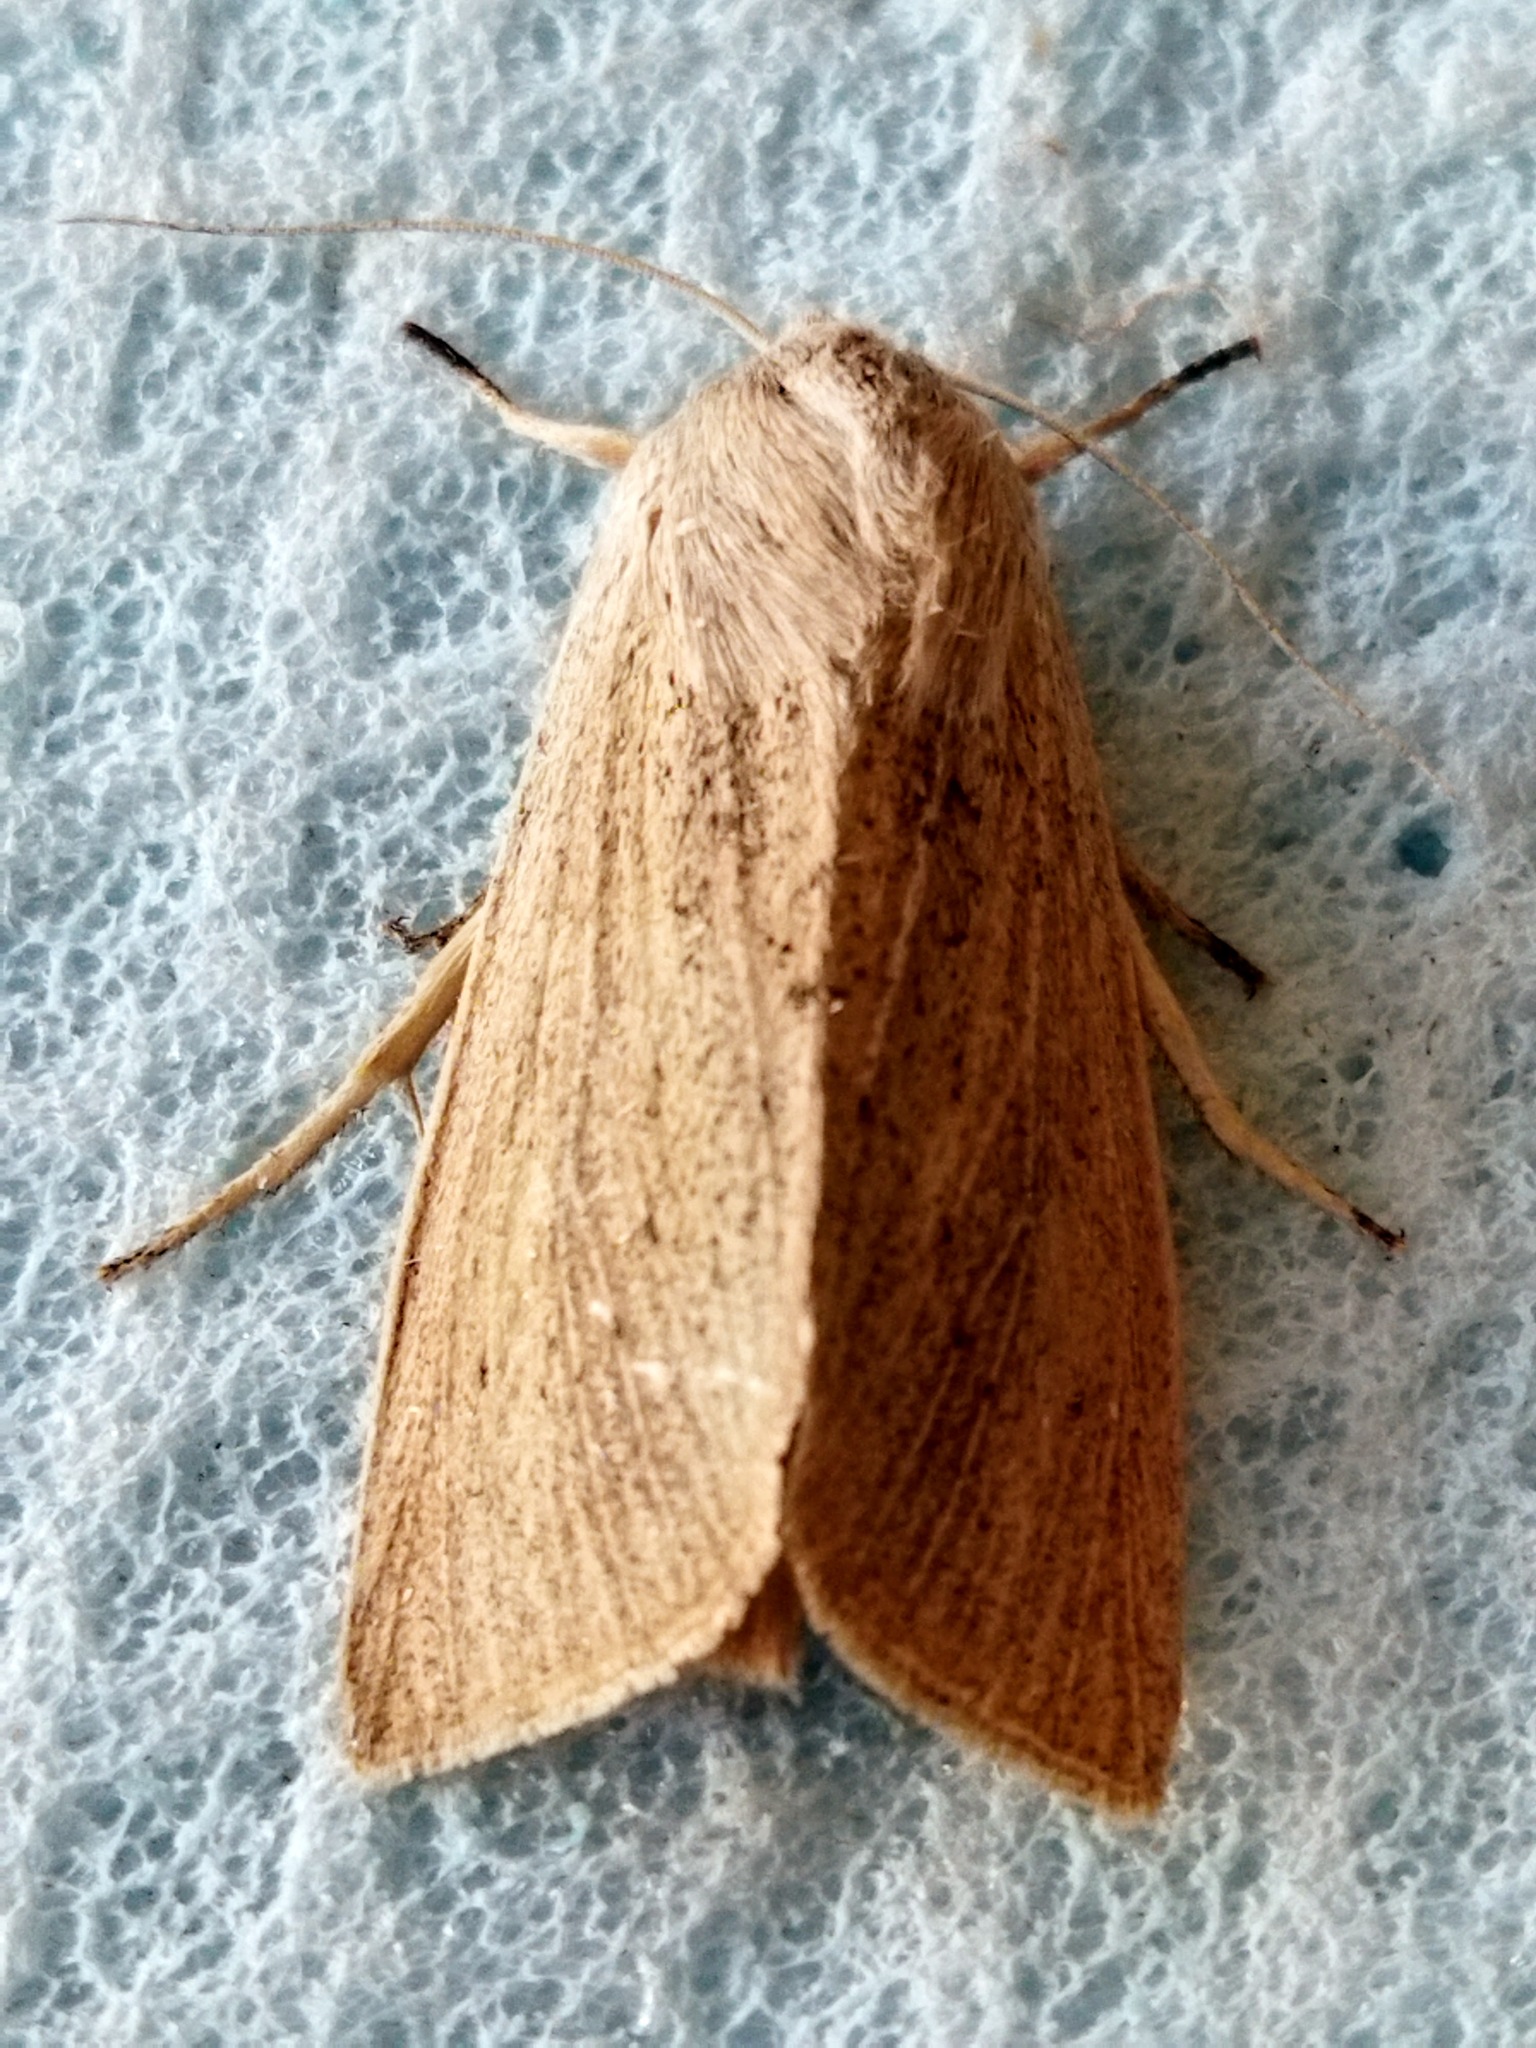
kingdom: Animalia
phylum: Arthropoda
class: Insecta
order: Lepidoptera
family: Noctuidae
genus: Rhizedra
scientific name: Rhizedra lutosa
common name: Large wainscot
